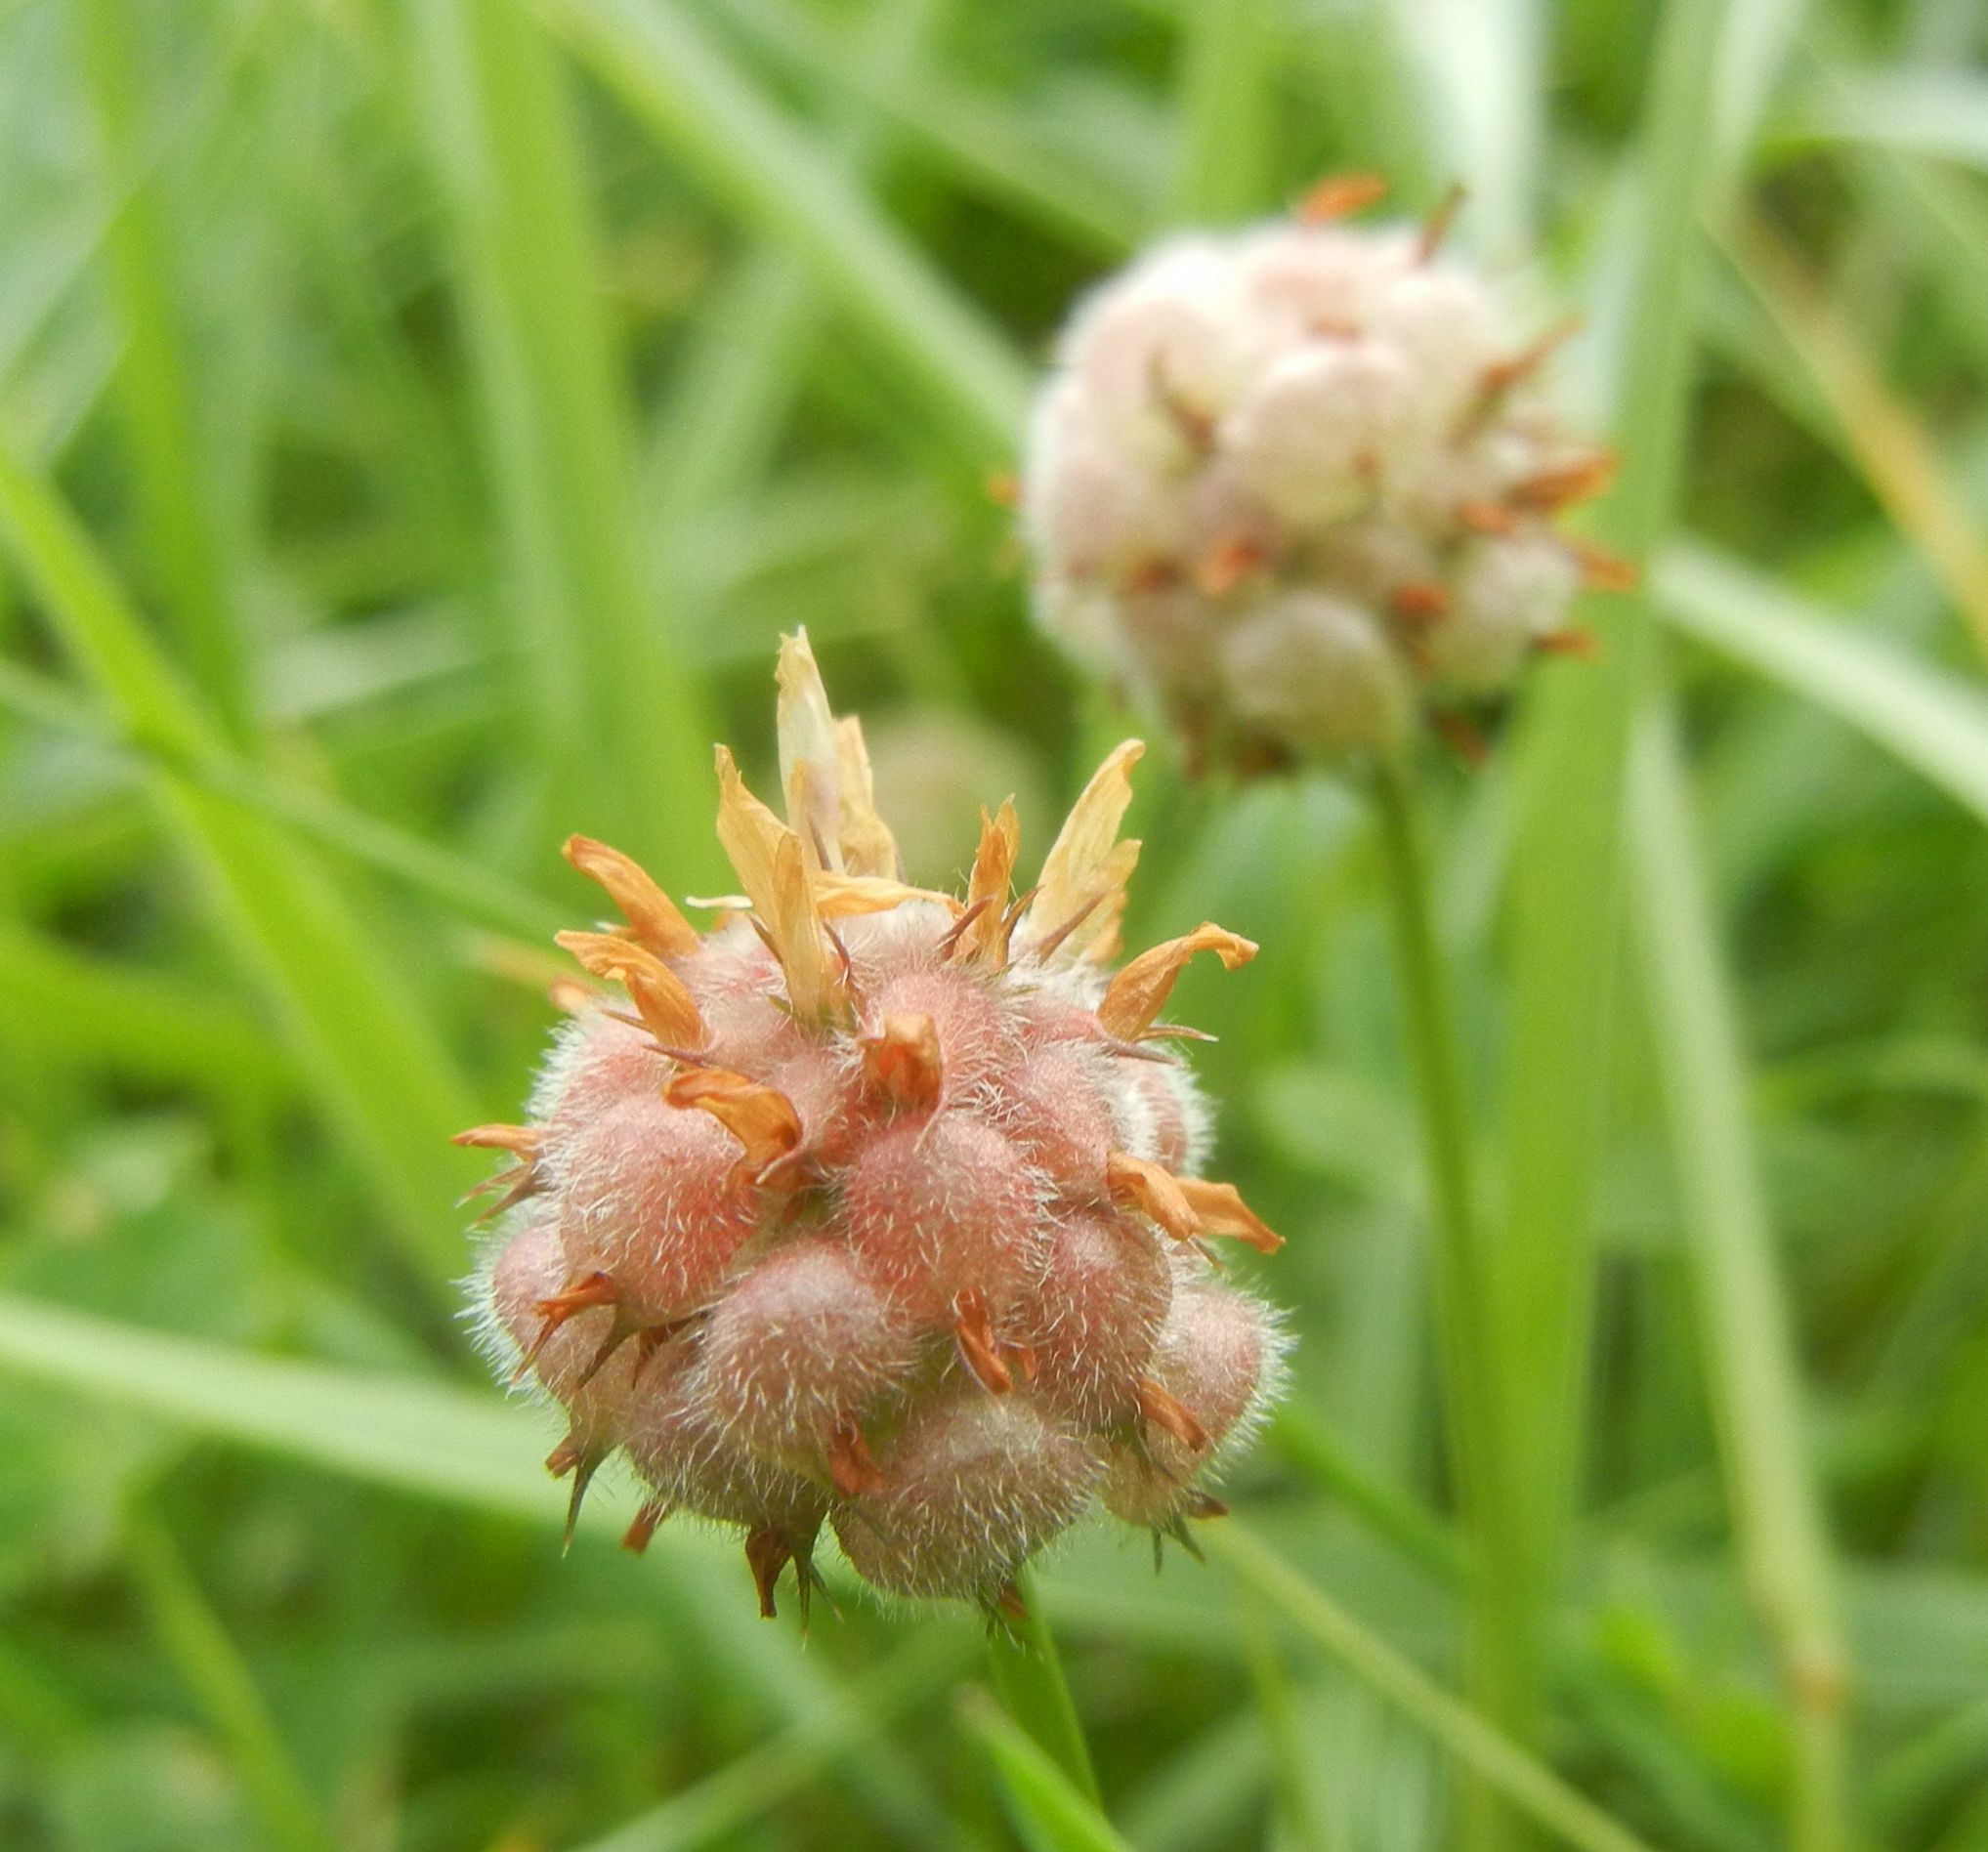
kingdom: Plantae
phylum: Tracheophyta
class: Magnoliopsida
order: Fabales
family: Fabaceae
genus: Trifolium
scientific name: Trifolium fragiferum
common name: Strawberry clover
